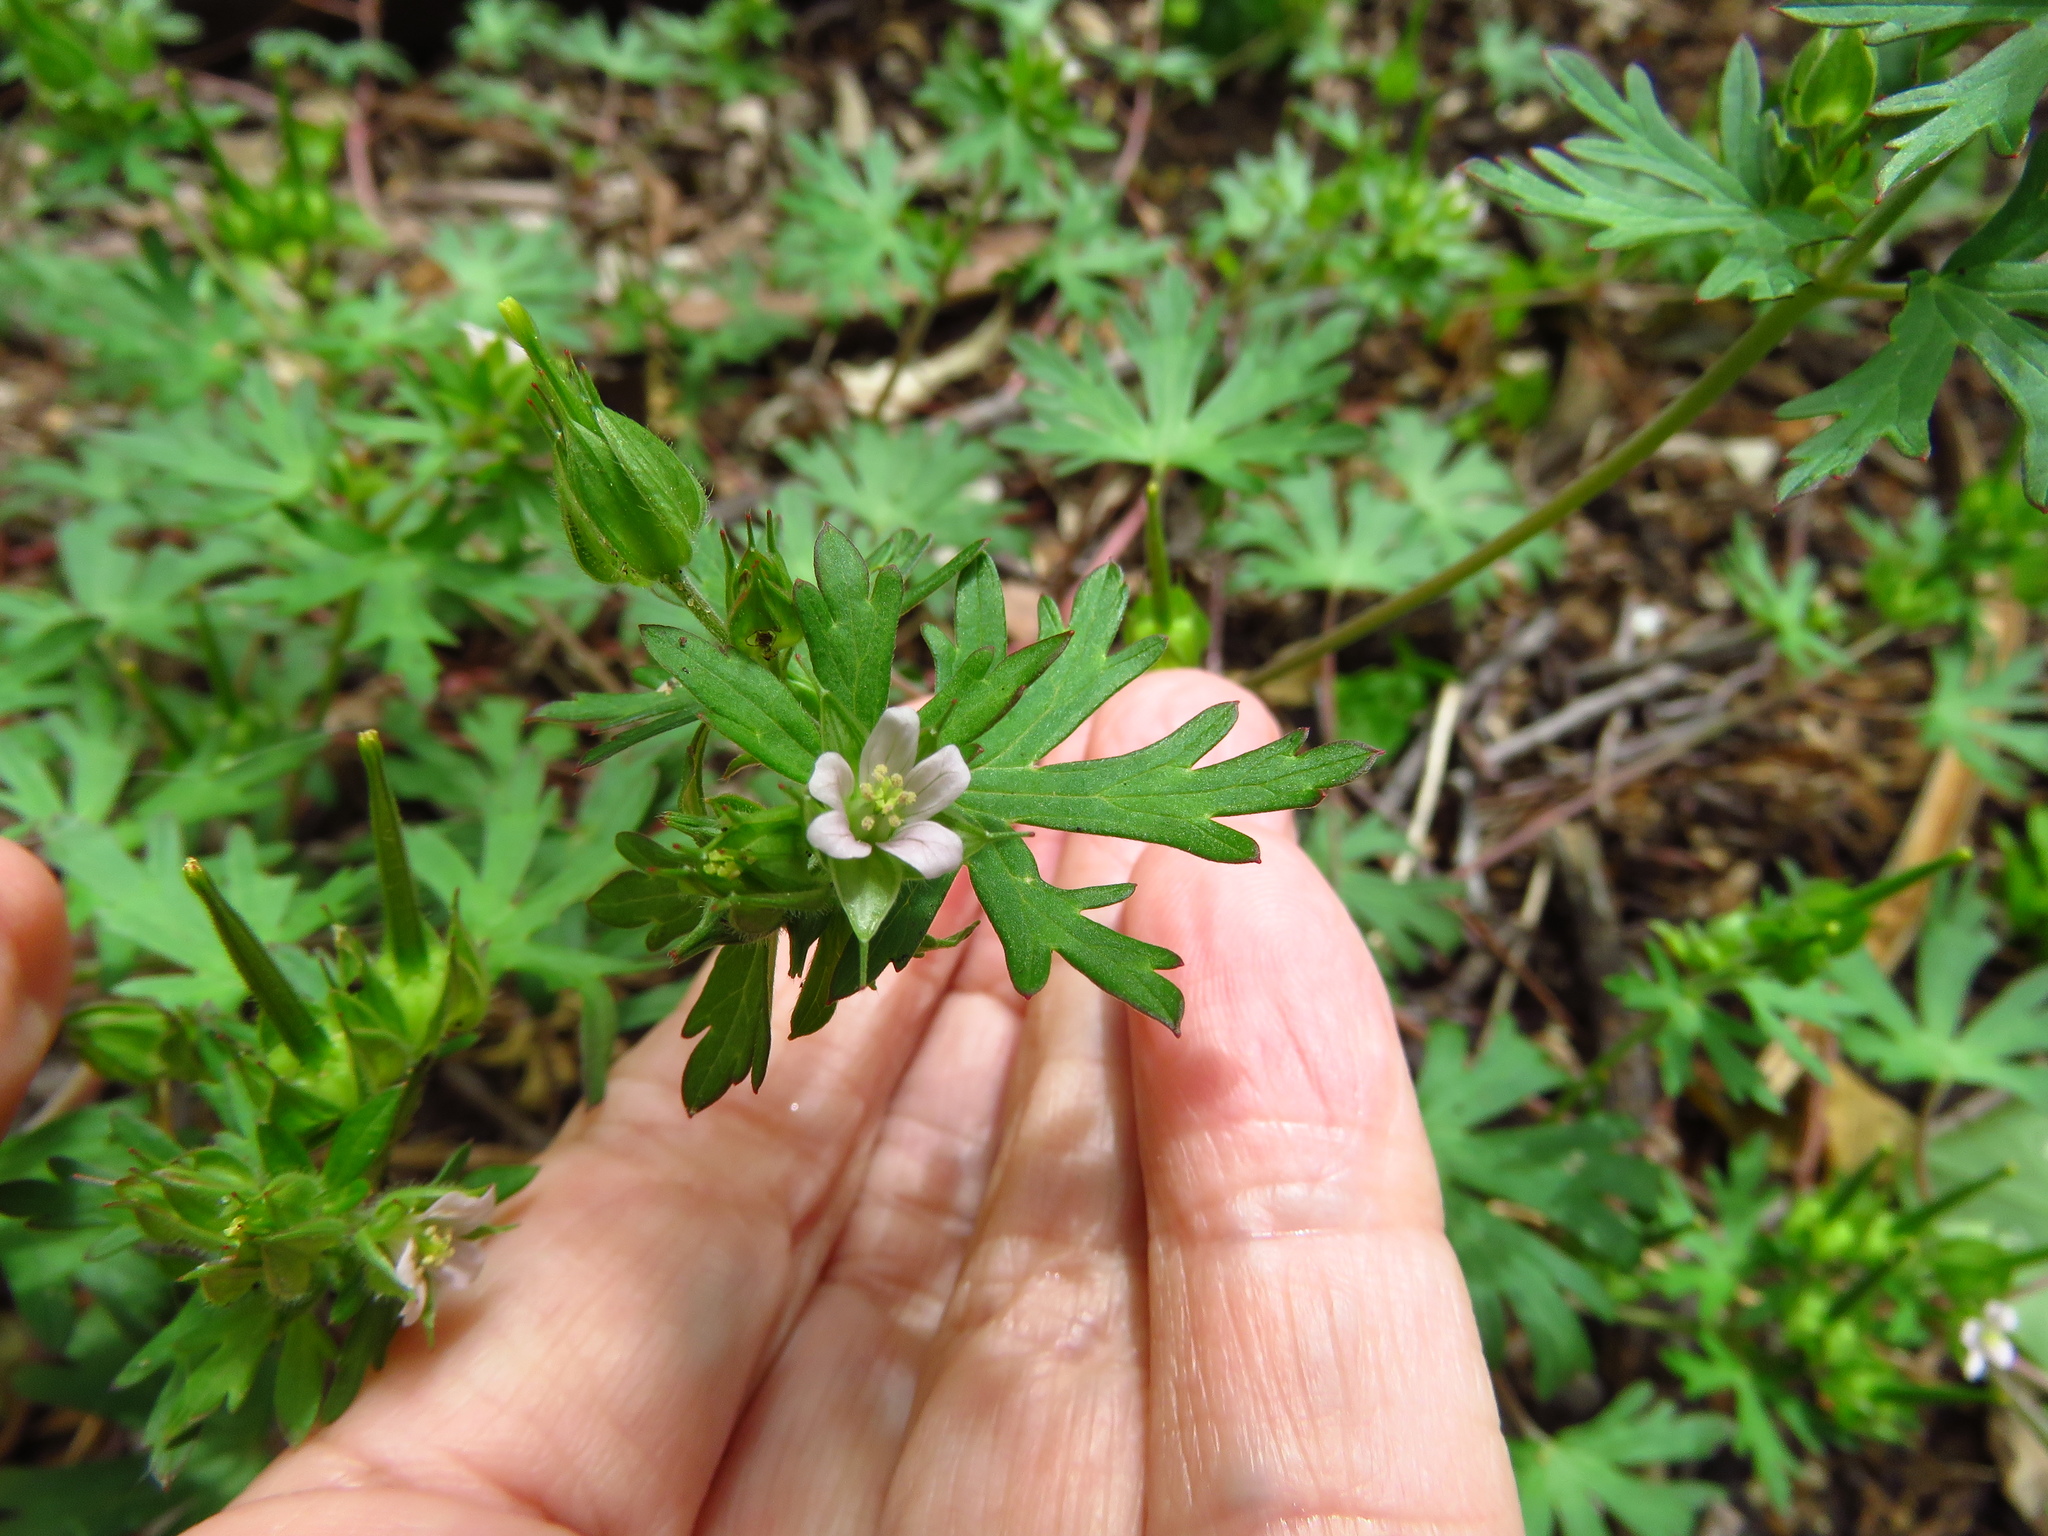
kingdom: Plantae
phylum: Tracheophyta
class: Magnoliopsida
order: Geraniales
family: Geraniaceae
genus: Geranium
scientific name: Geranium carolinianum
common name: Carolina crane's-bill
